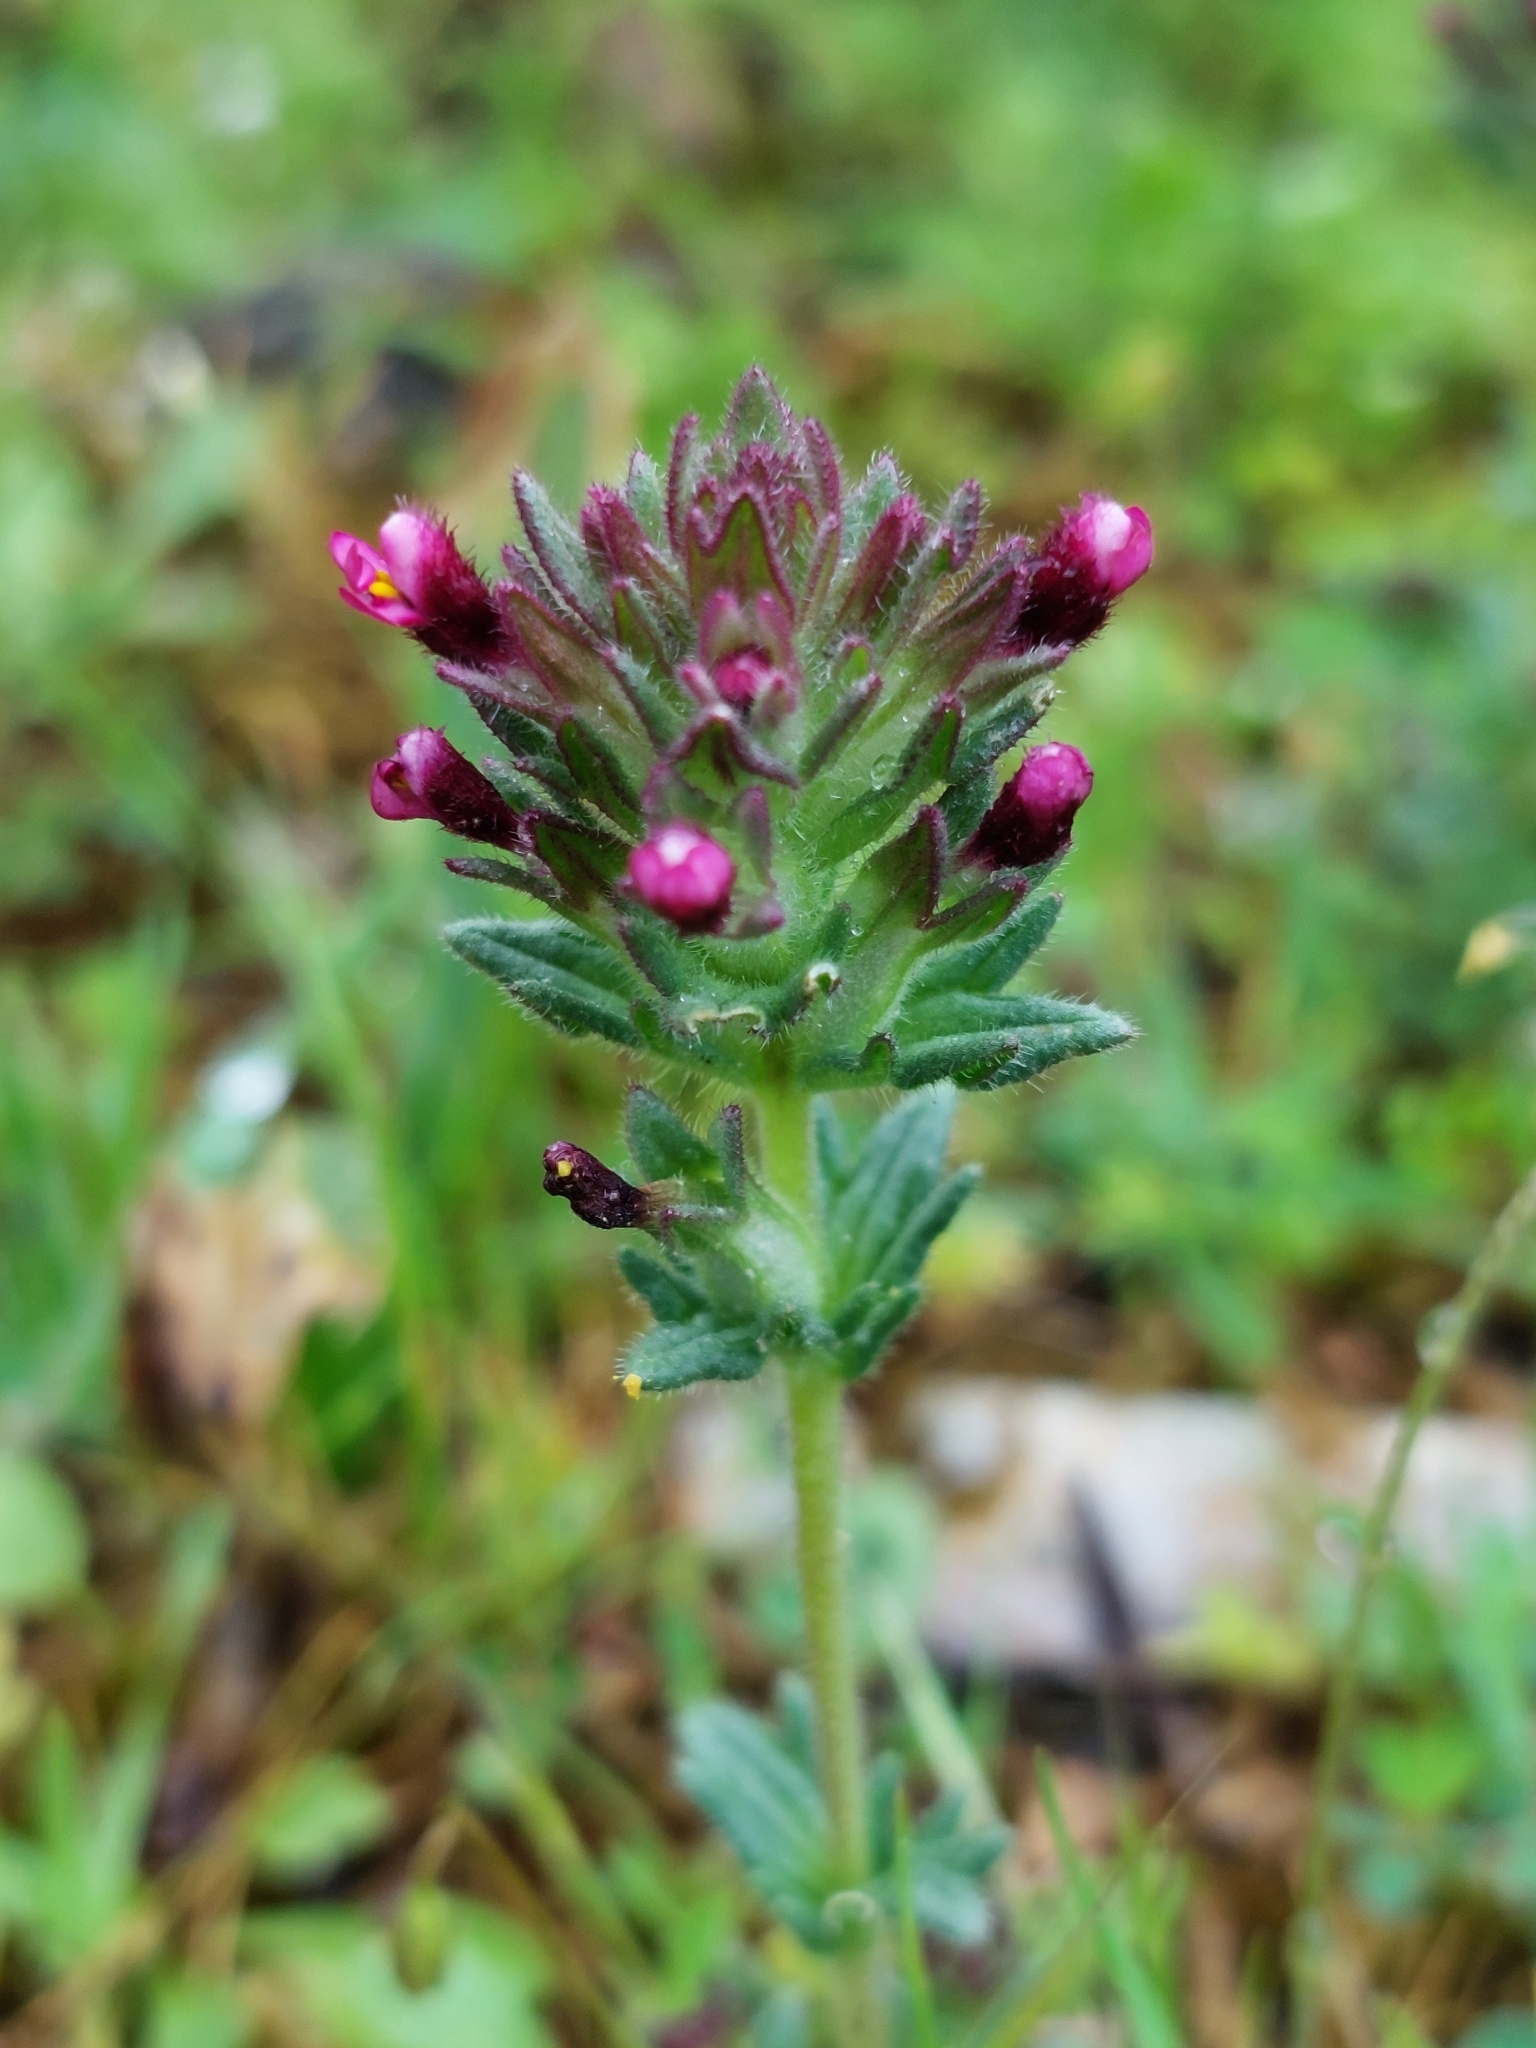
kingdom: Plantae
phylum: Tracheophyta
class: Magnoliopsida
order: Lamiales
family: Orobanchaceae
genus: Parentucellia
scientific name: Parentucellia latifolia
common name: Broadleaf glandweed
